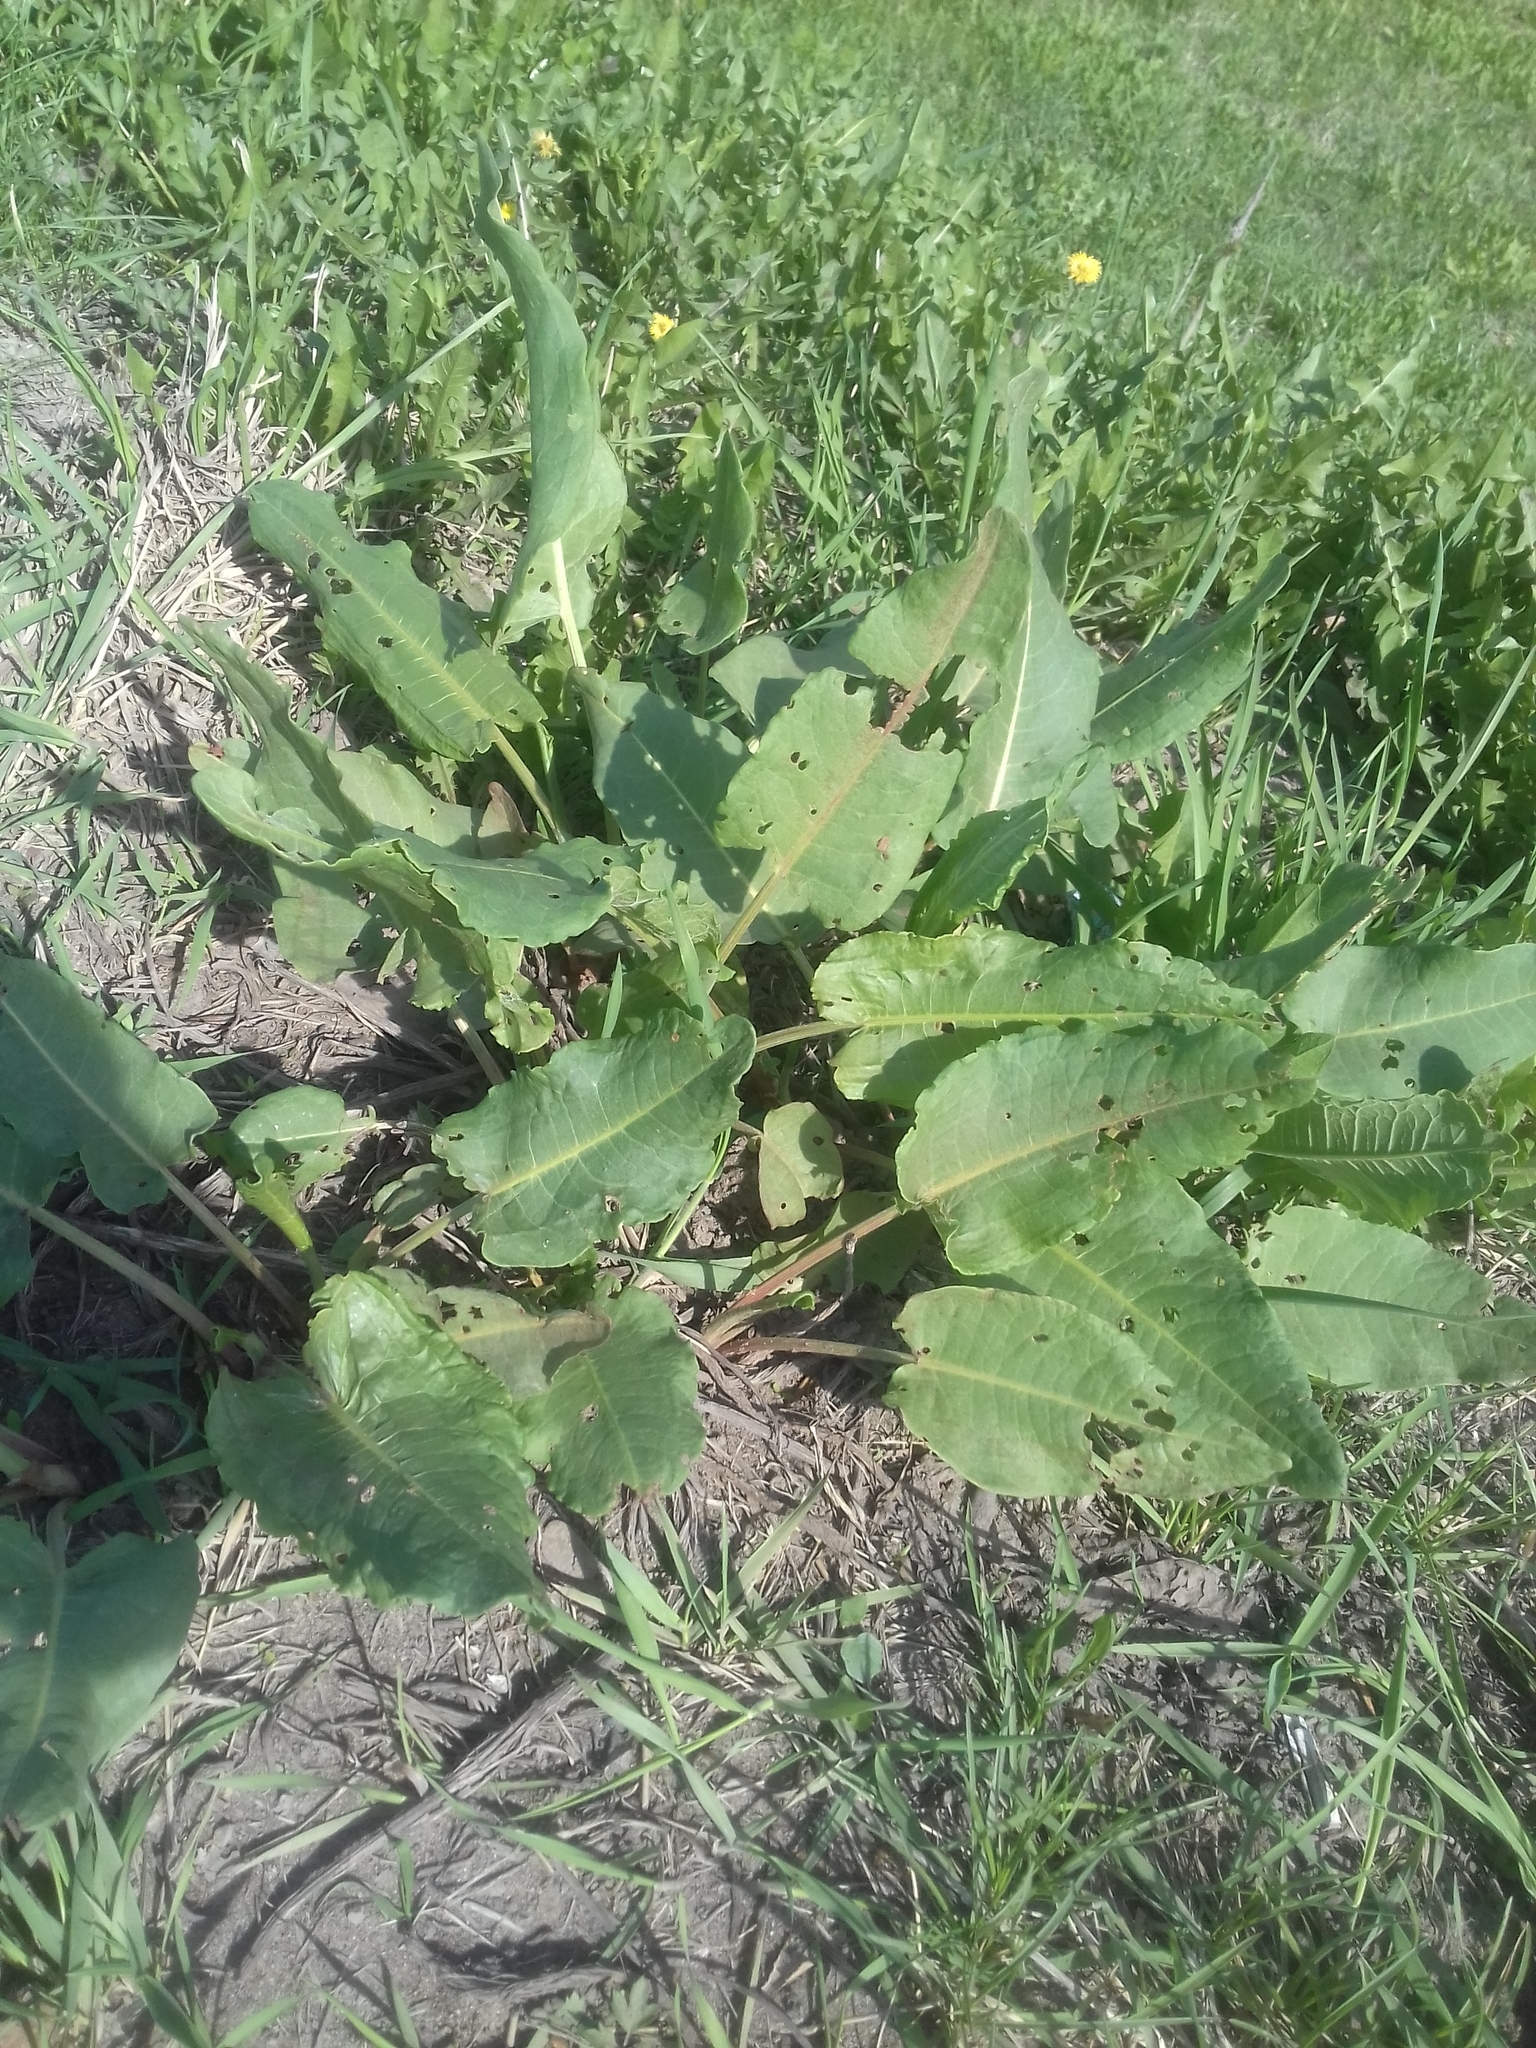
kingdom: Plantae
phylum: Tracheophyta
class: Magnoliopsida
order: Caryophyllales
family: Polygonaceae
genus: Rumex
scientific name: Rumex confertus
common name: Russian dock
